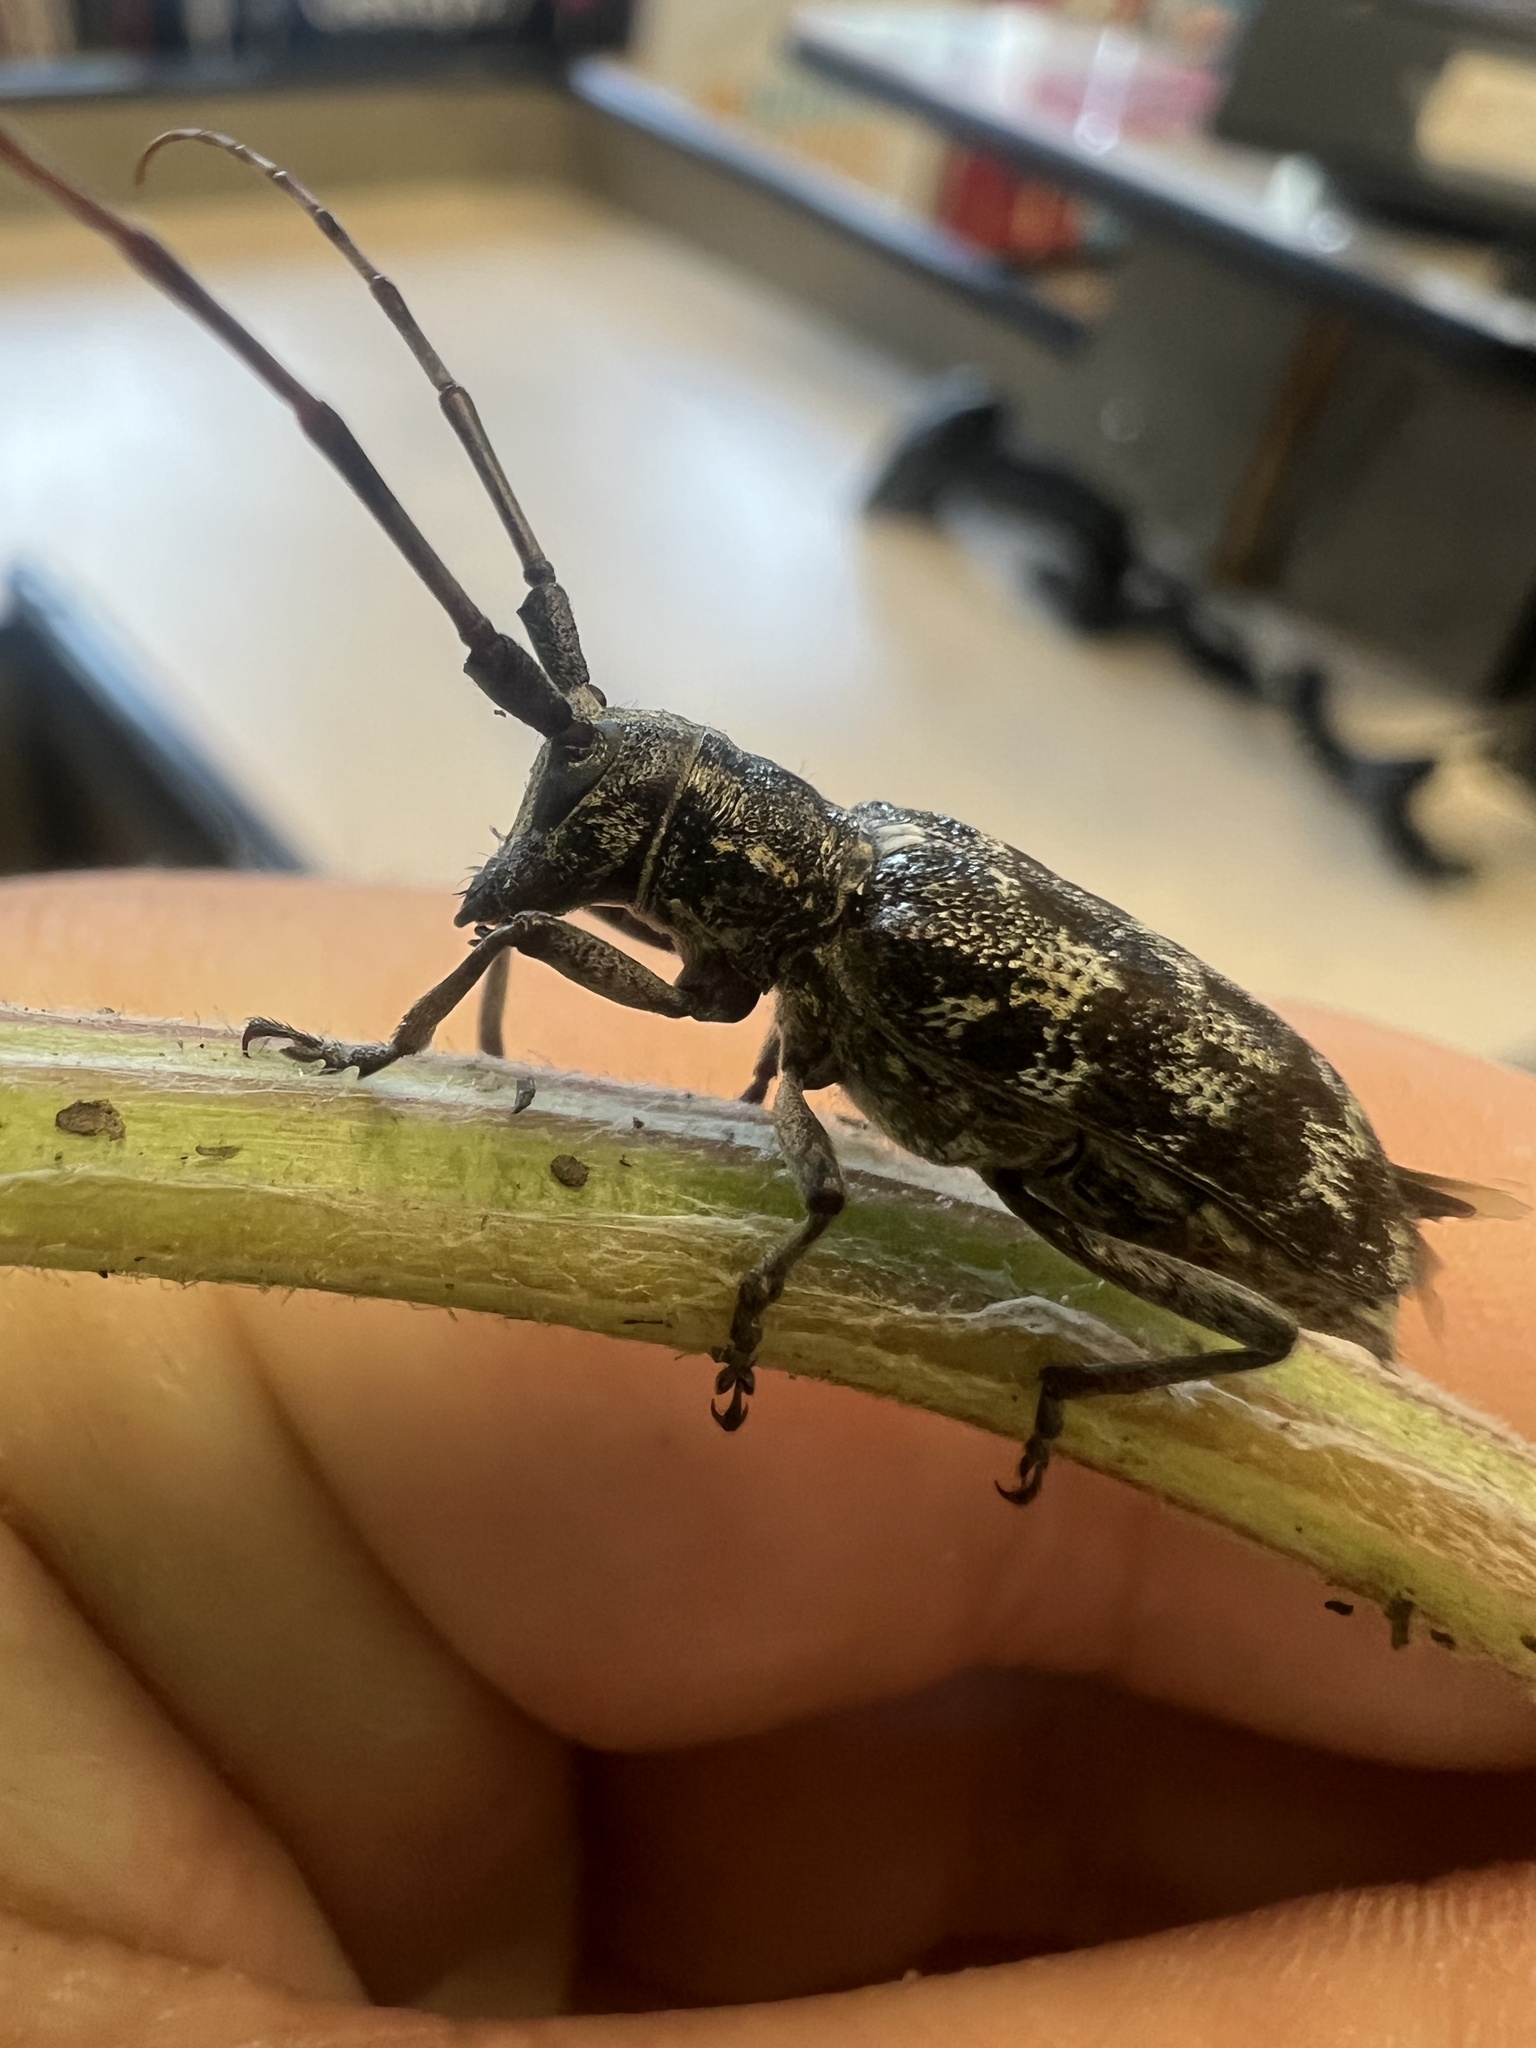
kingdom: Animalia
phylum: Arthropoda
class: Insecta
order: Coleoptera
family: Cerambycidae
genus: Monochamus
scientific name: Monochamus clamator
